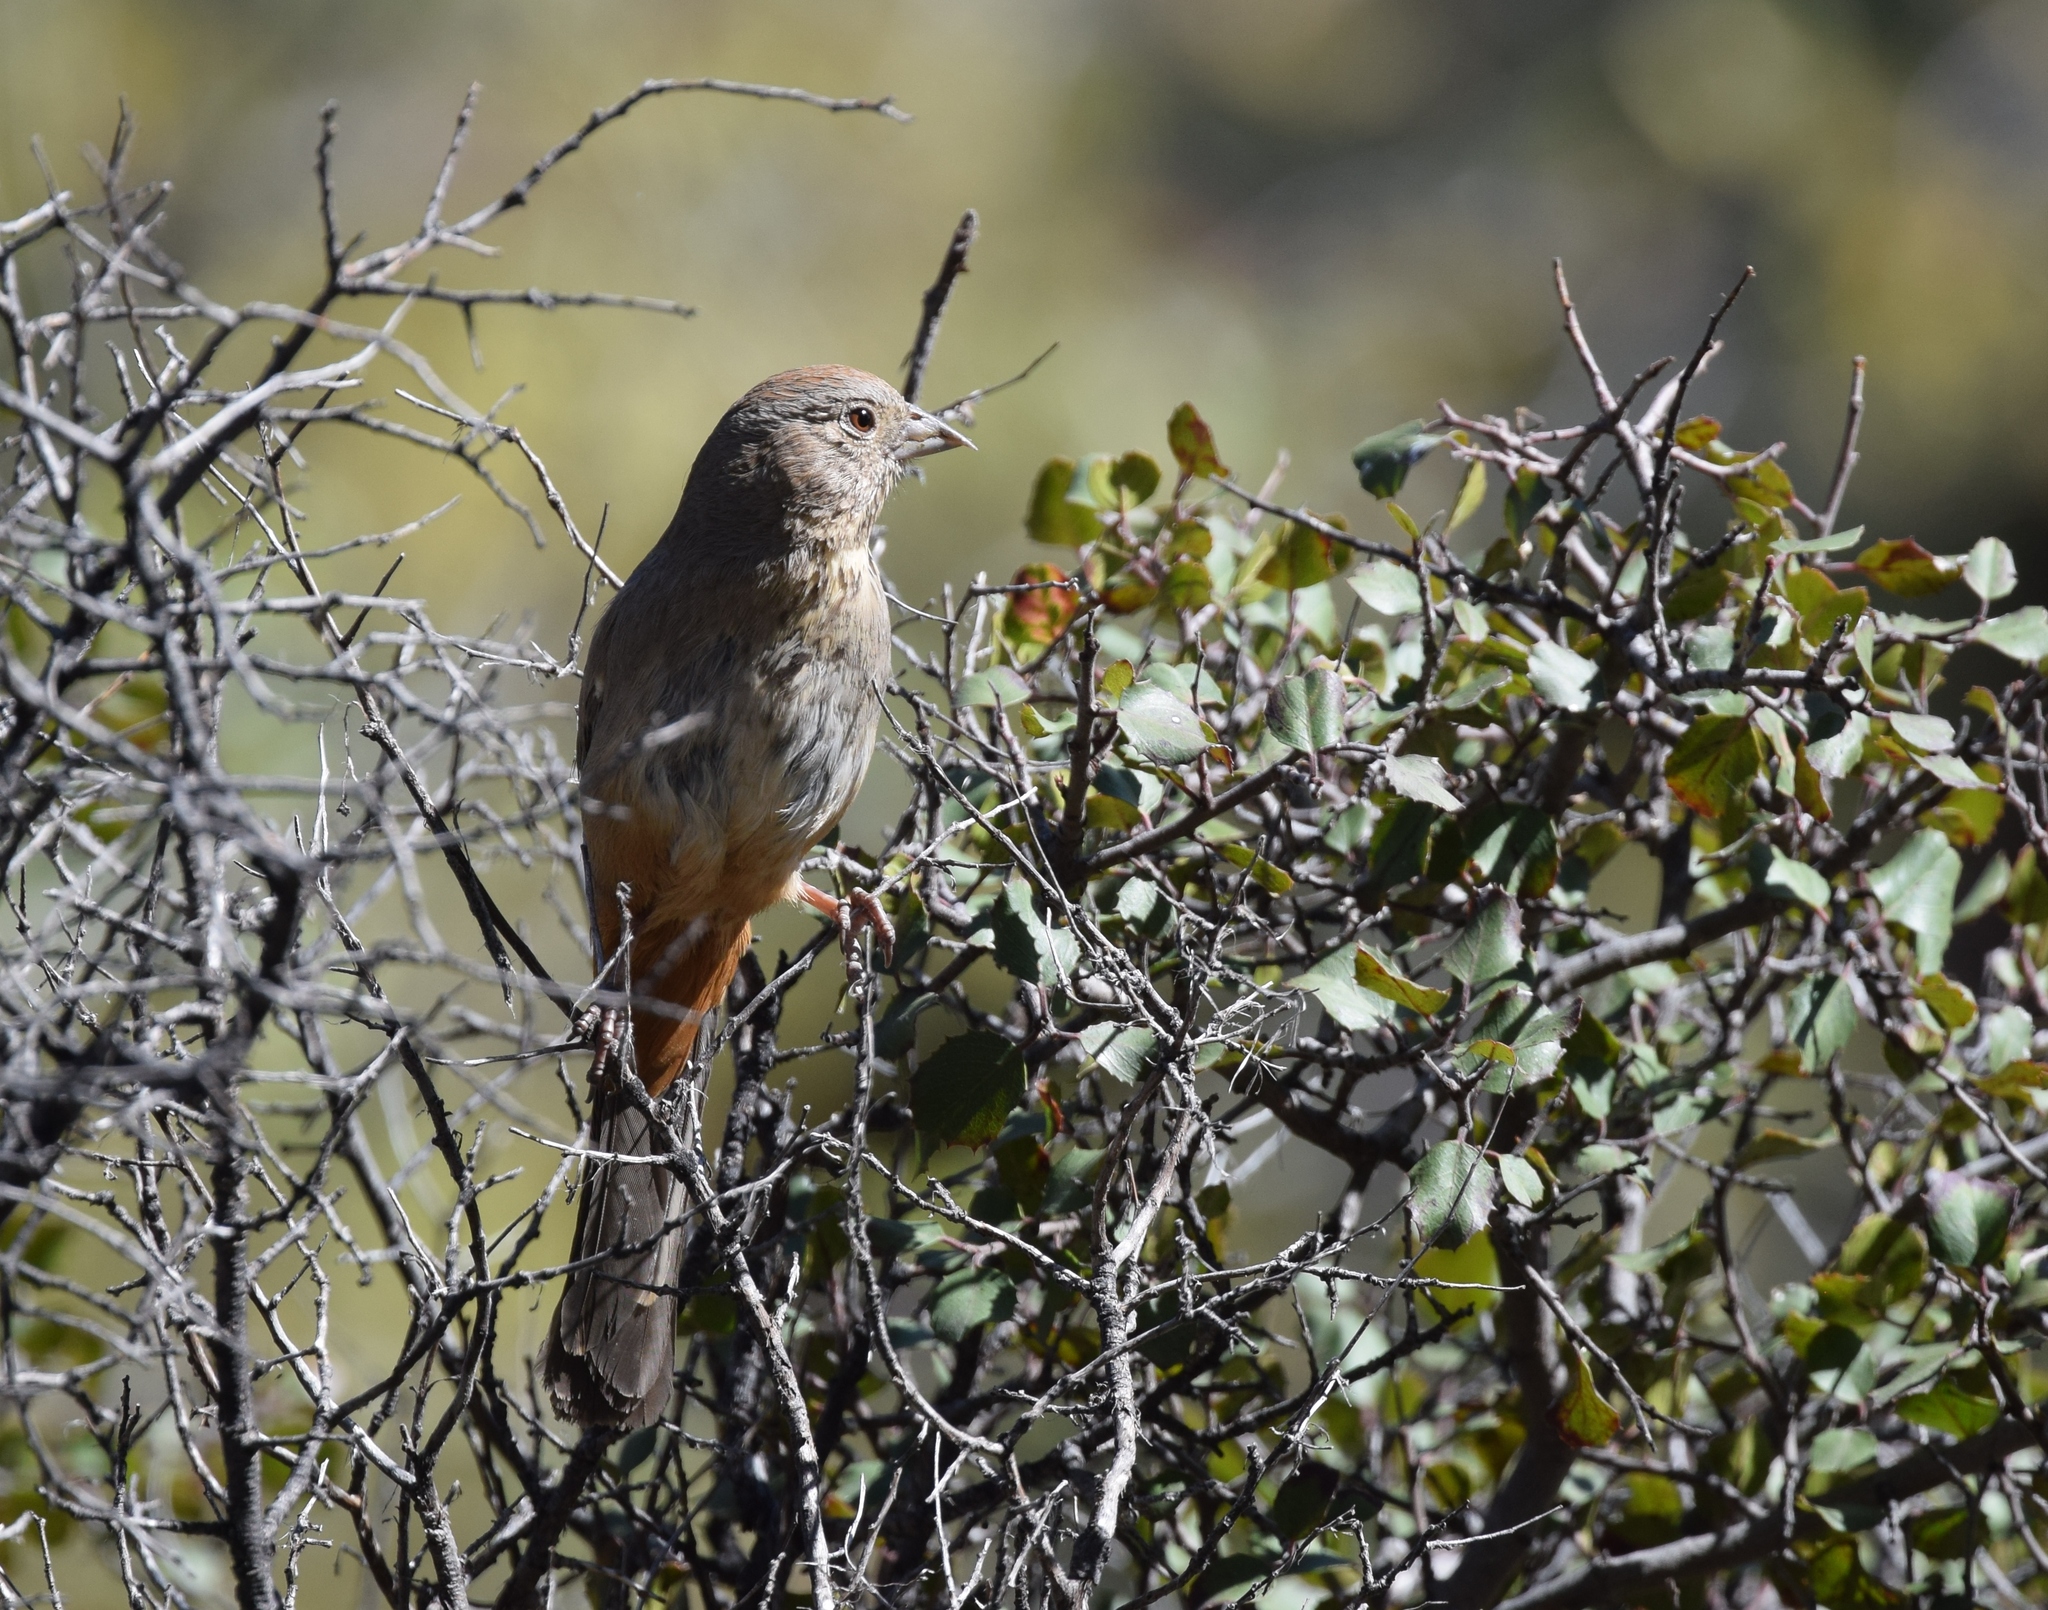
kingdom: Animalia
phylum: Chordata
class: Aves
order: Passeriformes
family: Passerellidae
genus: Melozone
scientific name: Melozone fusca
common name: Canyon towhee
